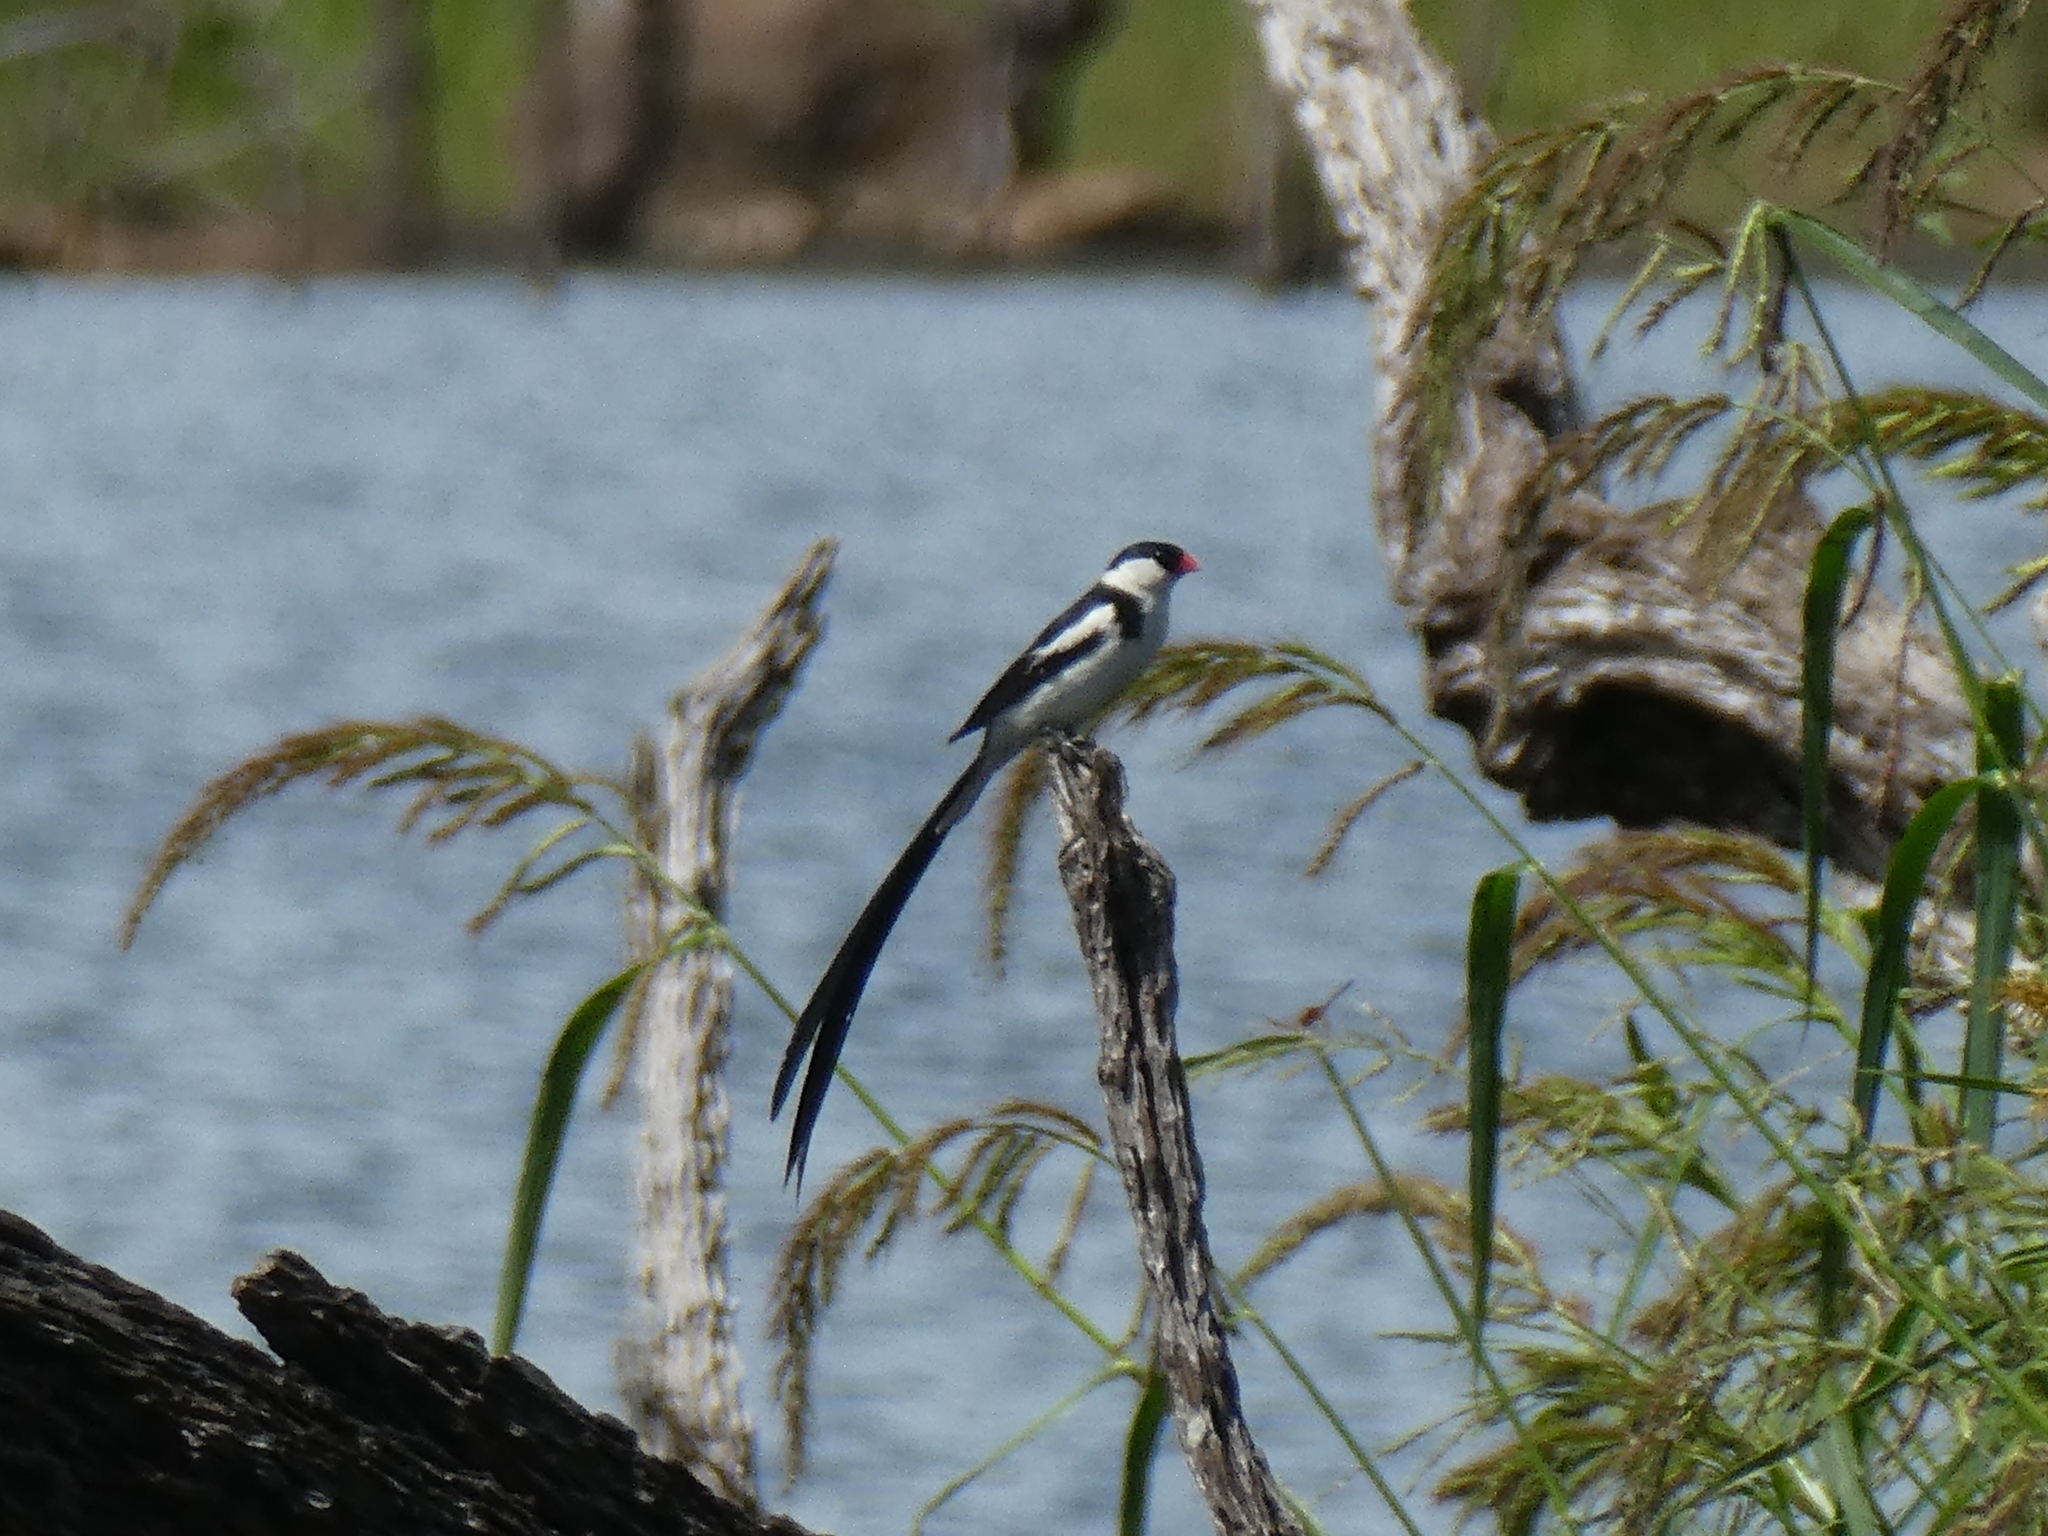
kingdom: Animalia
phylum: Chordata
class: Aves
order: Passeriformes
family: Viduidae
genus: Vidua
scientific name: Vidua macroura
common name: Pin-tailed whydah
